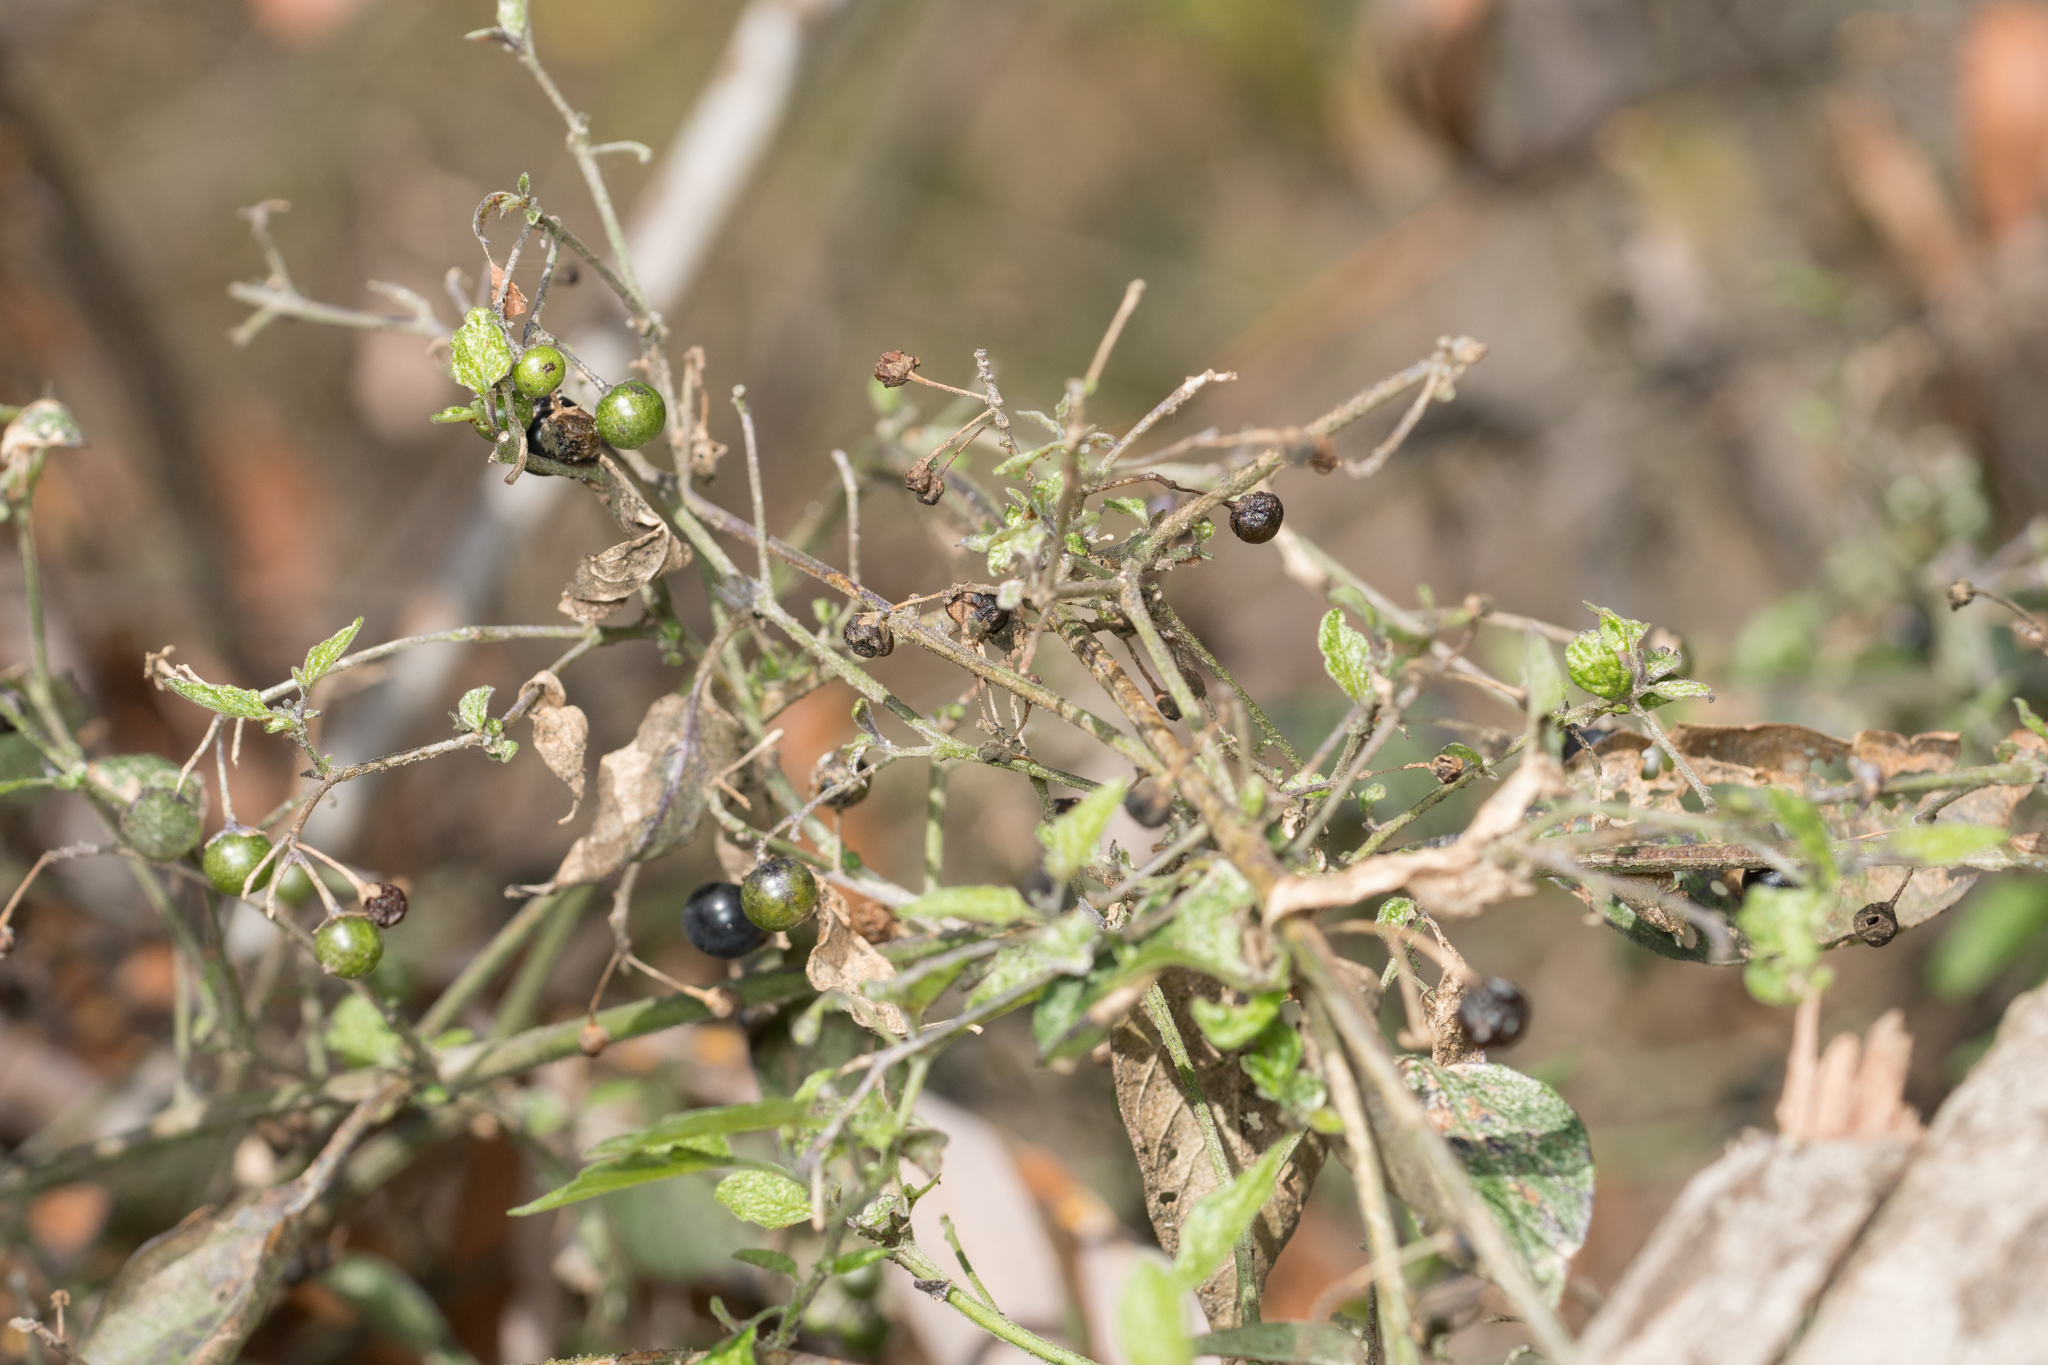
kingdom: Plantae
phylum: Tracheophyta
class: Magnoliopsida
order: Solanales
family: Solanaceae
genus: Solanum
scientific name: Solanum douglasii
